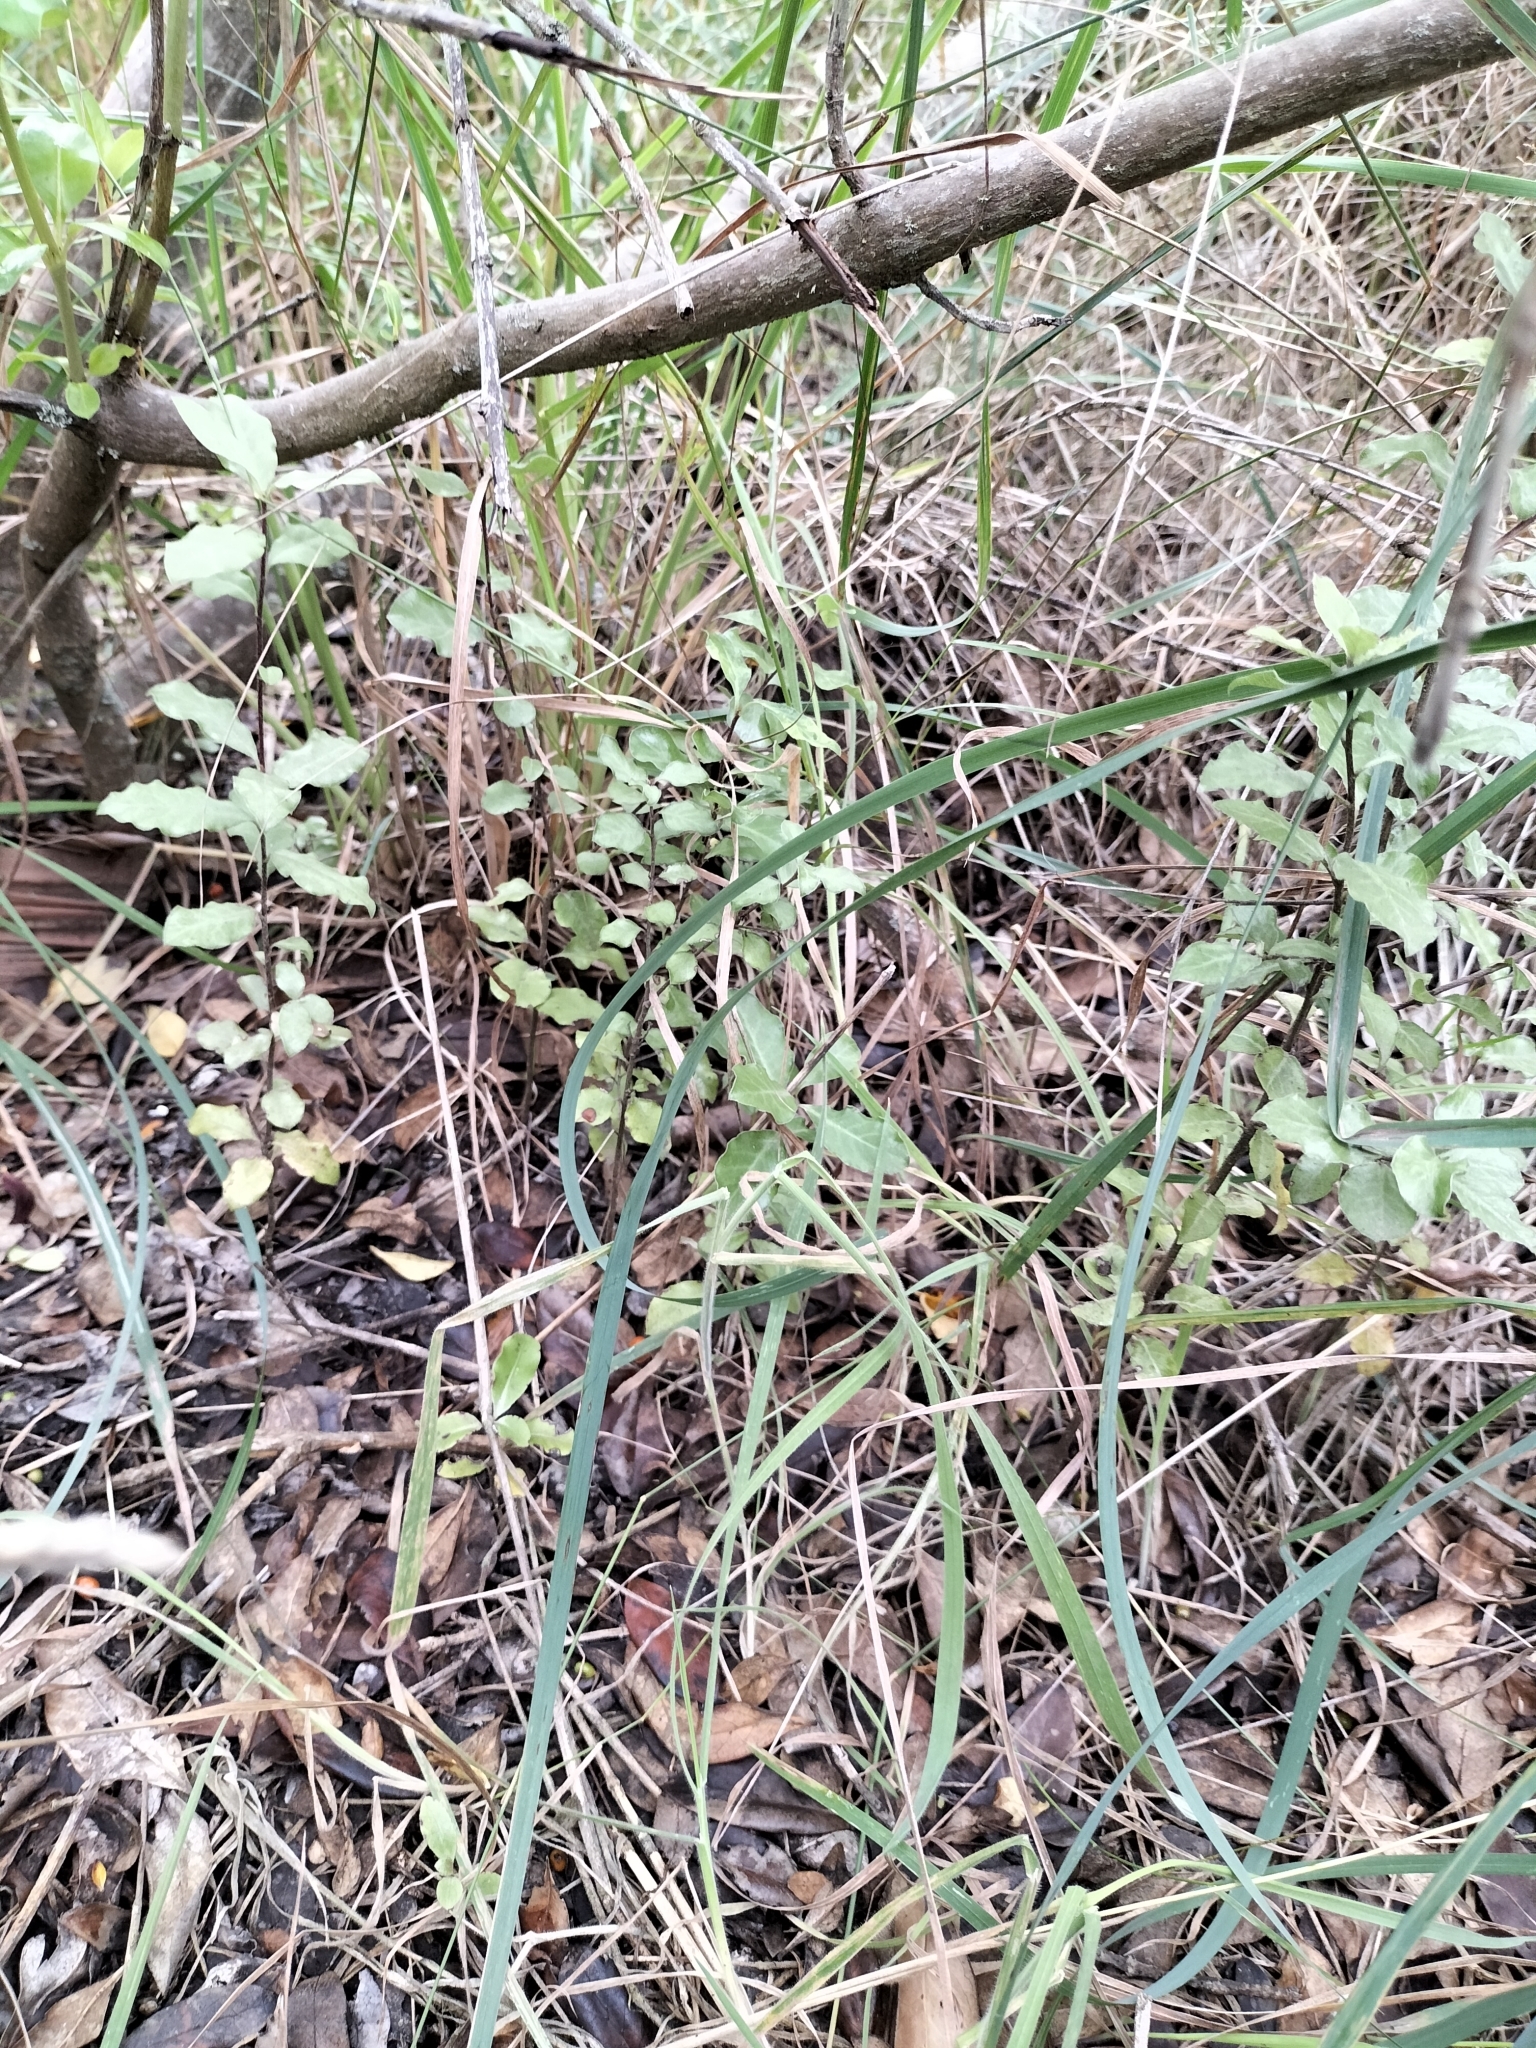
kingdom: Plantae
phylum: Tracheophyta
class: Magnoliopsida
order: Apiales
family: Pittosporaceae
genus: Pittosporum
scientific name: Pittosporum tenuifolium
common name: Kohuhu
